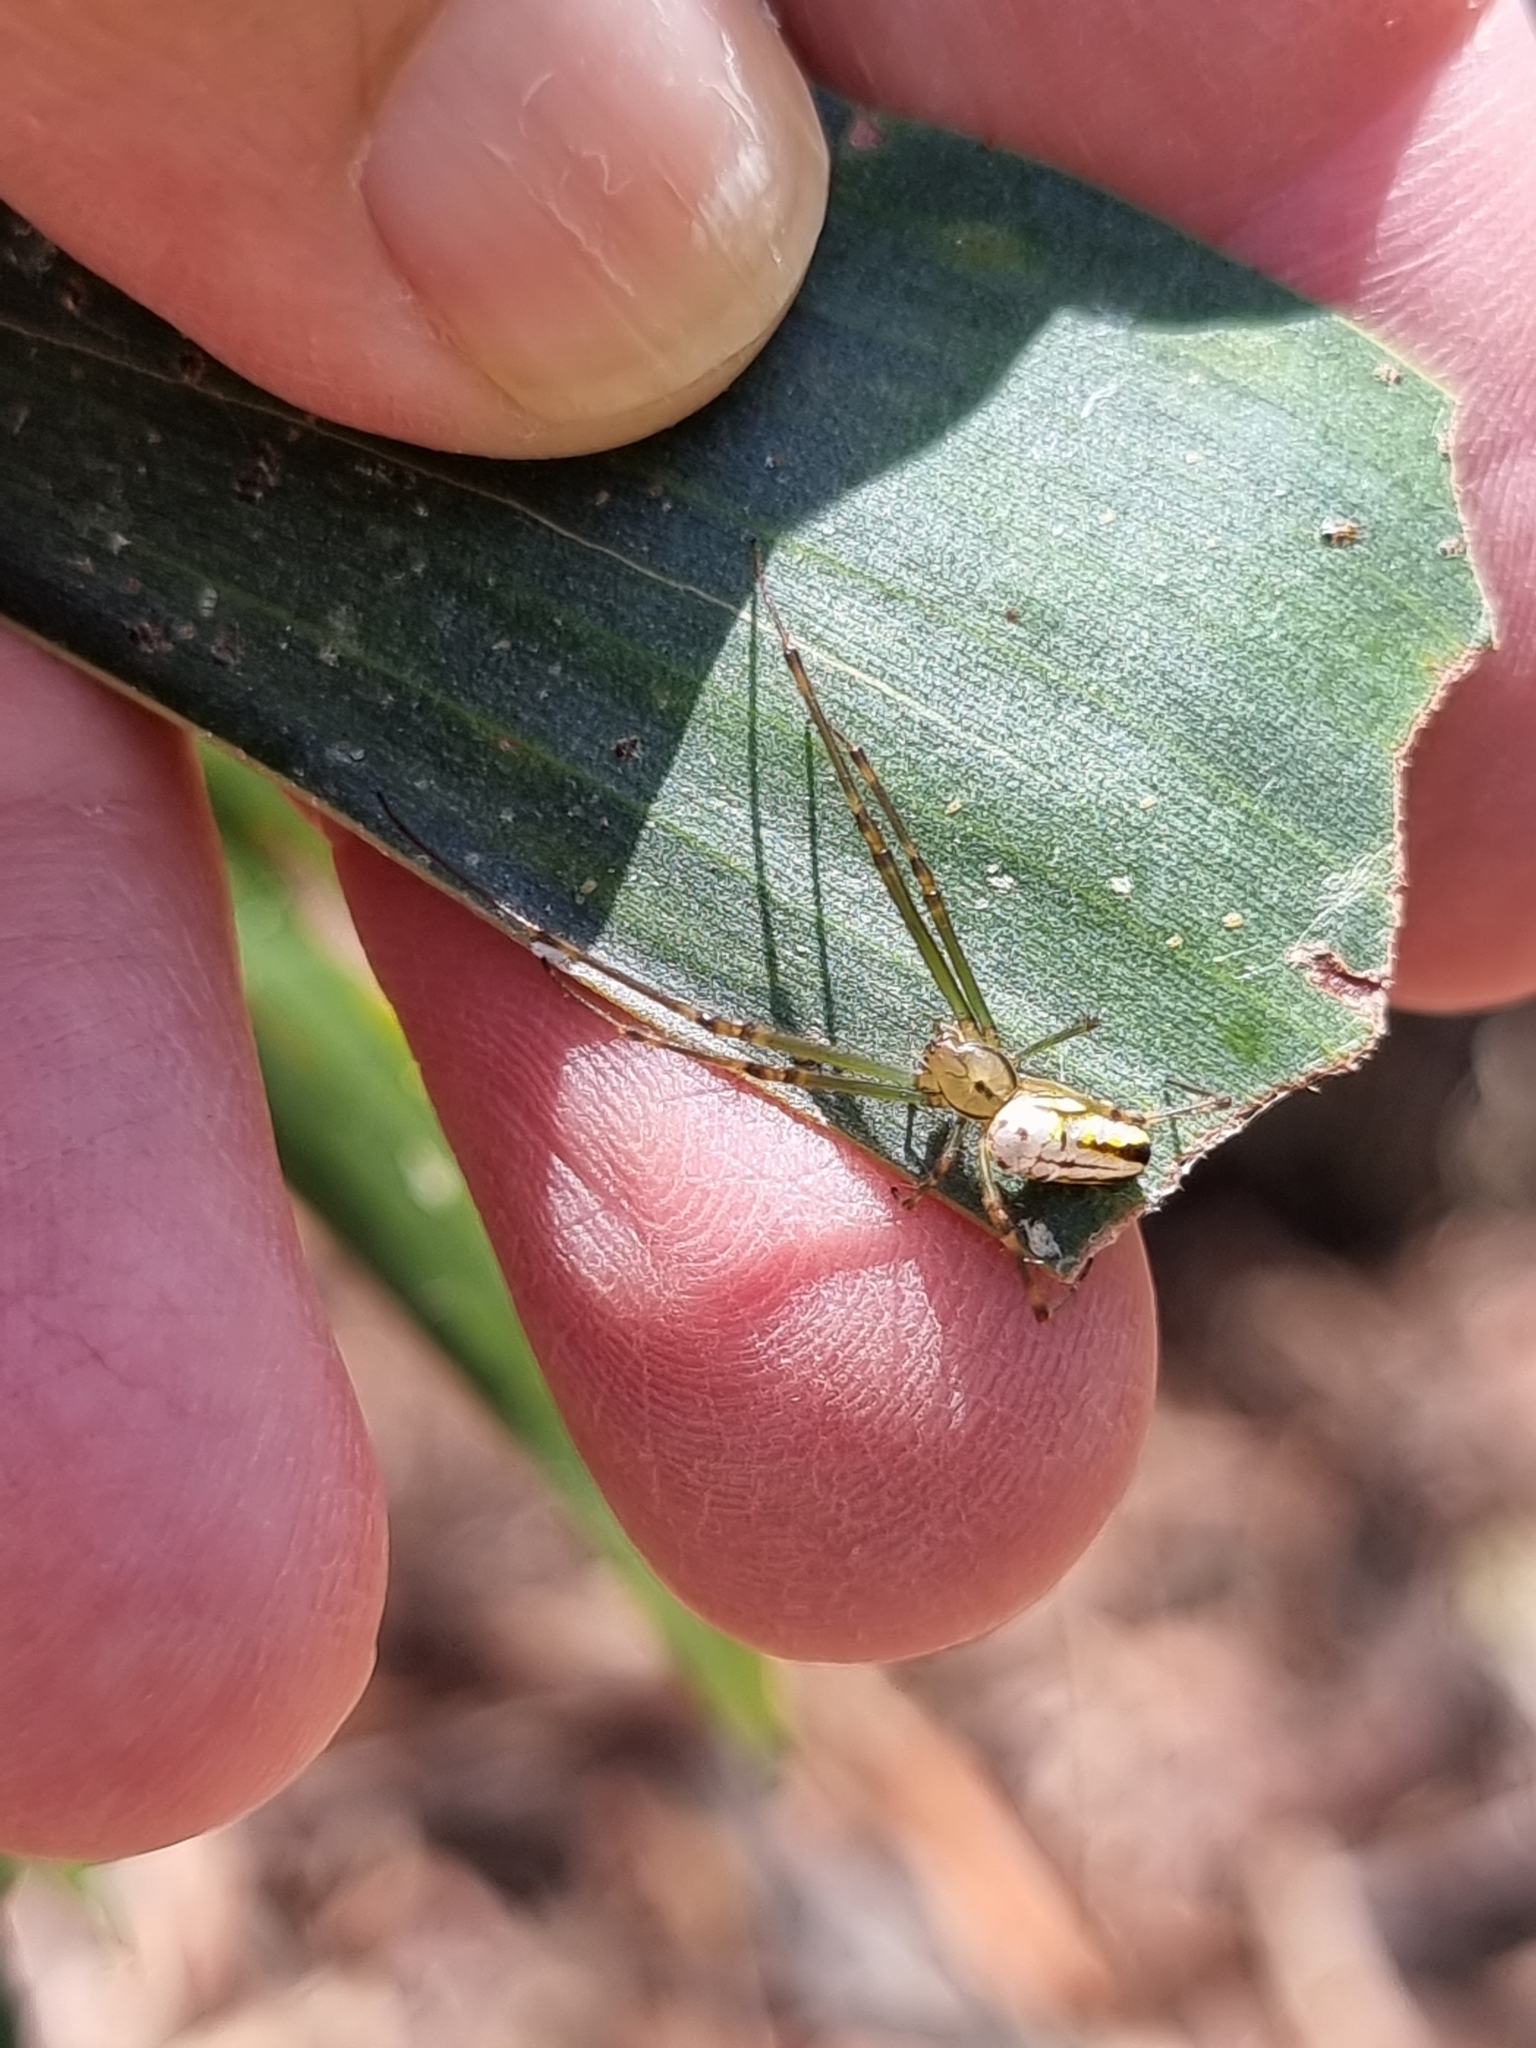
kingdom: Animalia
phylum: Arthropoda
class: Arachnida
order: Araneae
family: Tetragnathidae
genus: Leucauge
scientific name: Leucauge dromedaria
